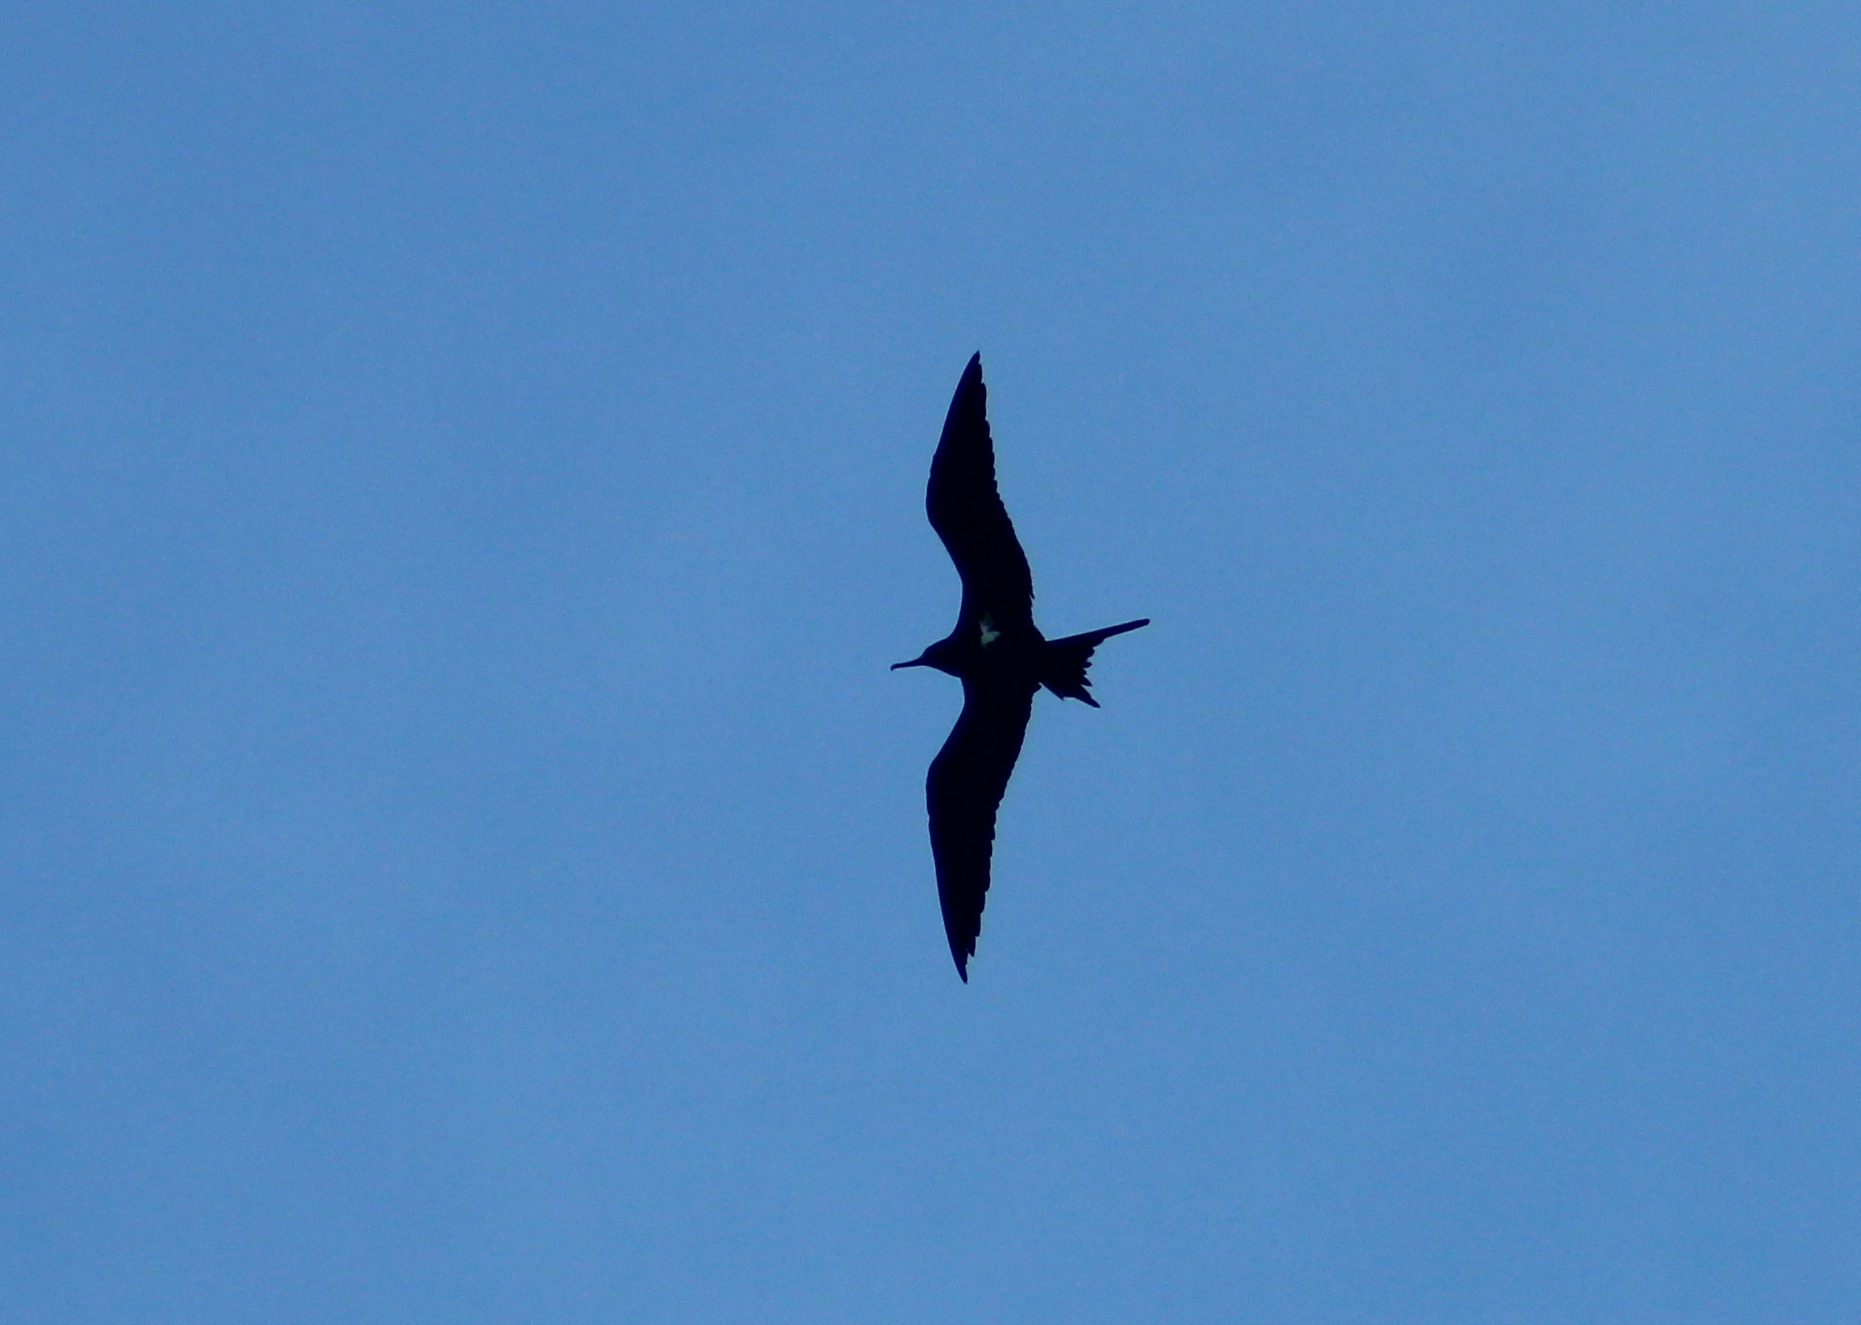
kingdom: Animalia
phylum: Chordata
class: Aves
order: Suliformes
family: Fregatidae
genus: Fregata
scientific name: Fregata ariel
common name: Lesser frigatebird
